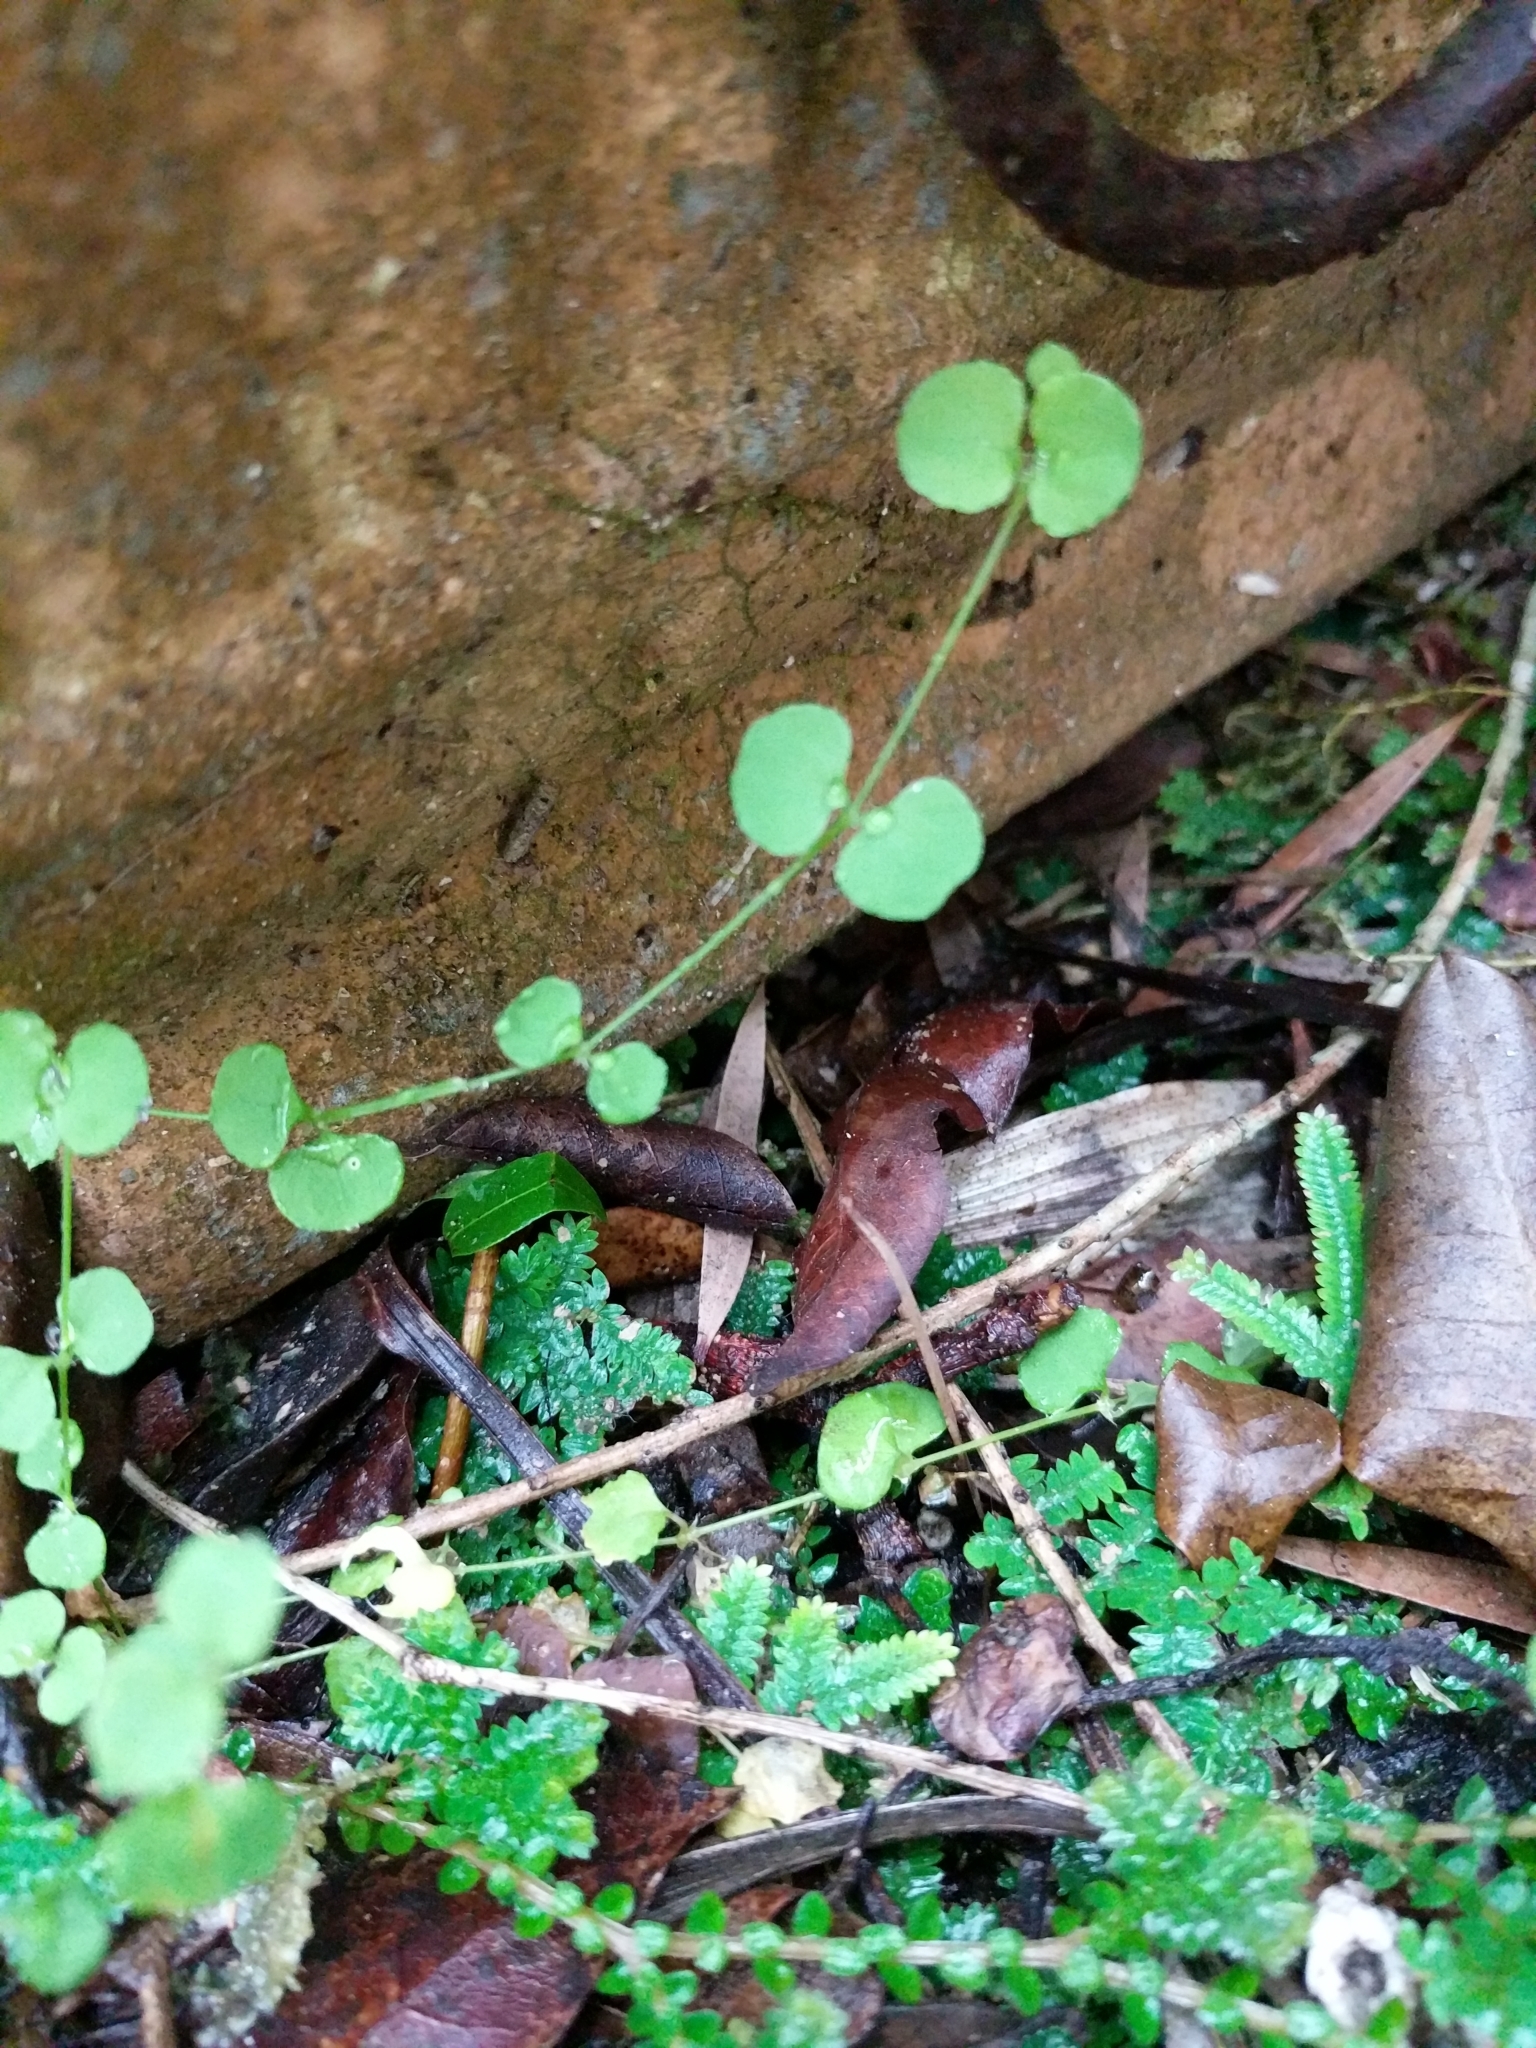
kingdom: Plantae
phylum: Tracheophyta
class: Magnoliopsida
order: Caryophyllales
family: Caryophyllaceae
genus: Drymaria
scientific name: Drymaria cordata
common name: Whitesnow
